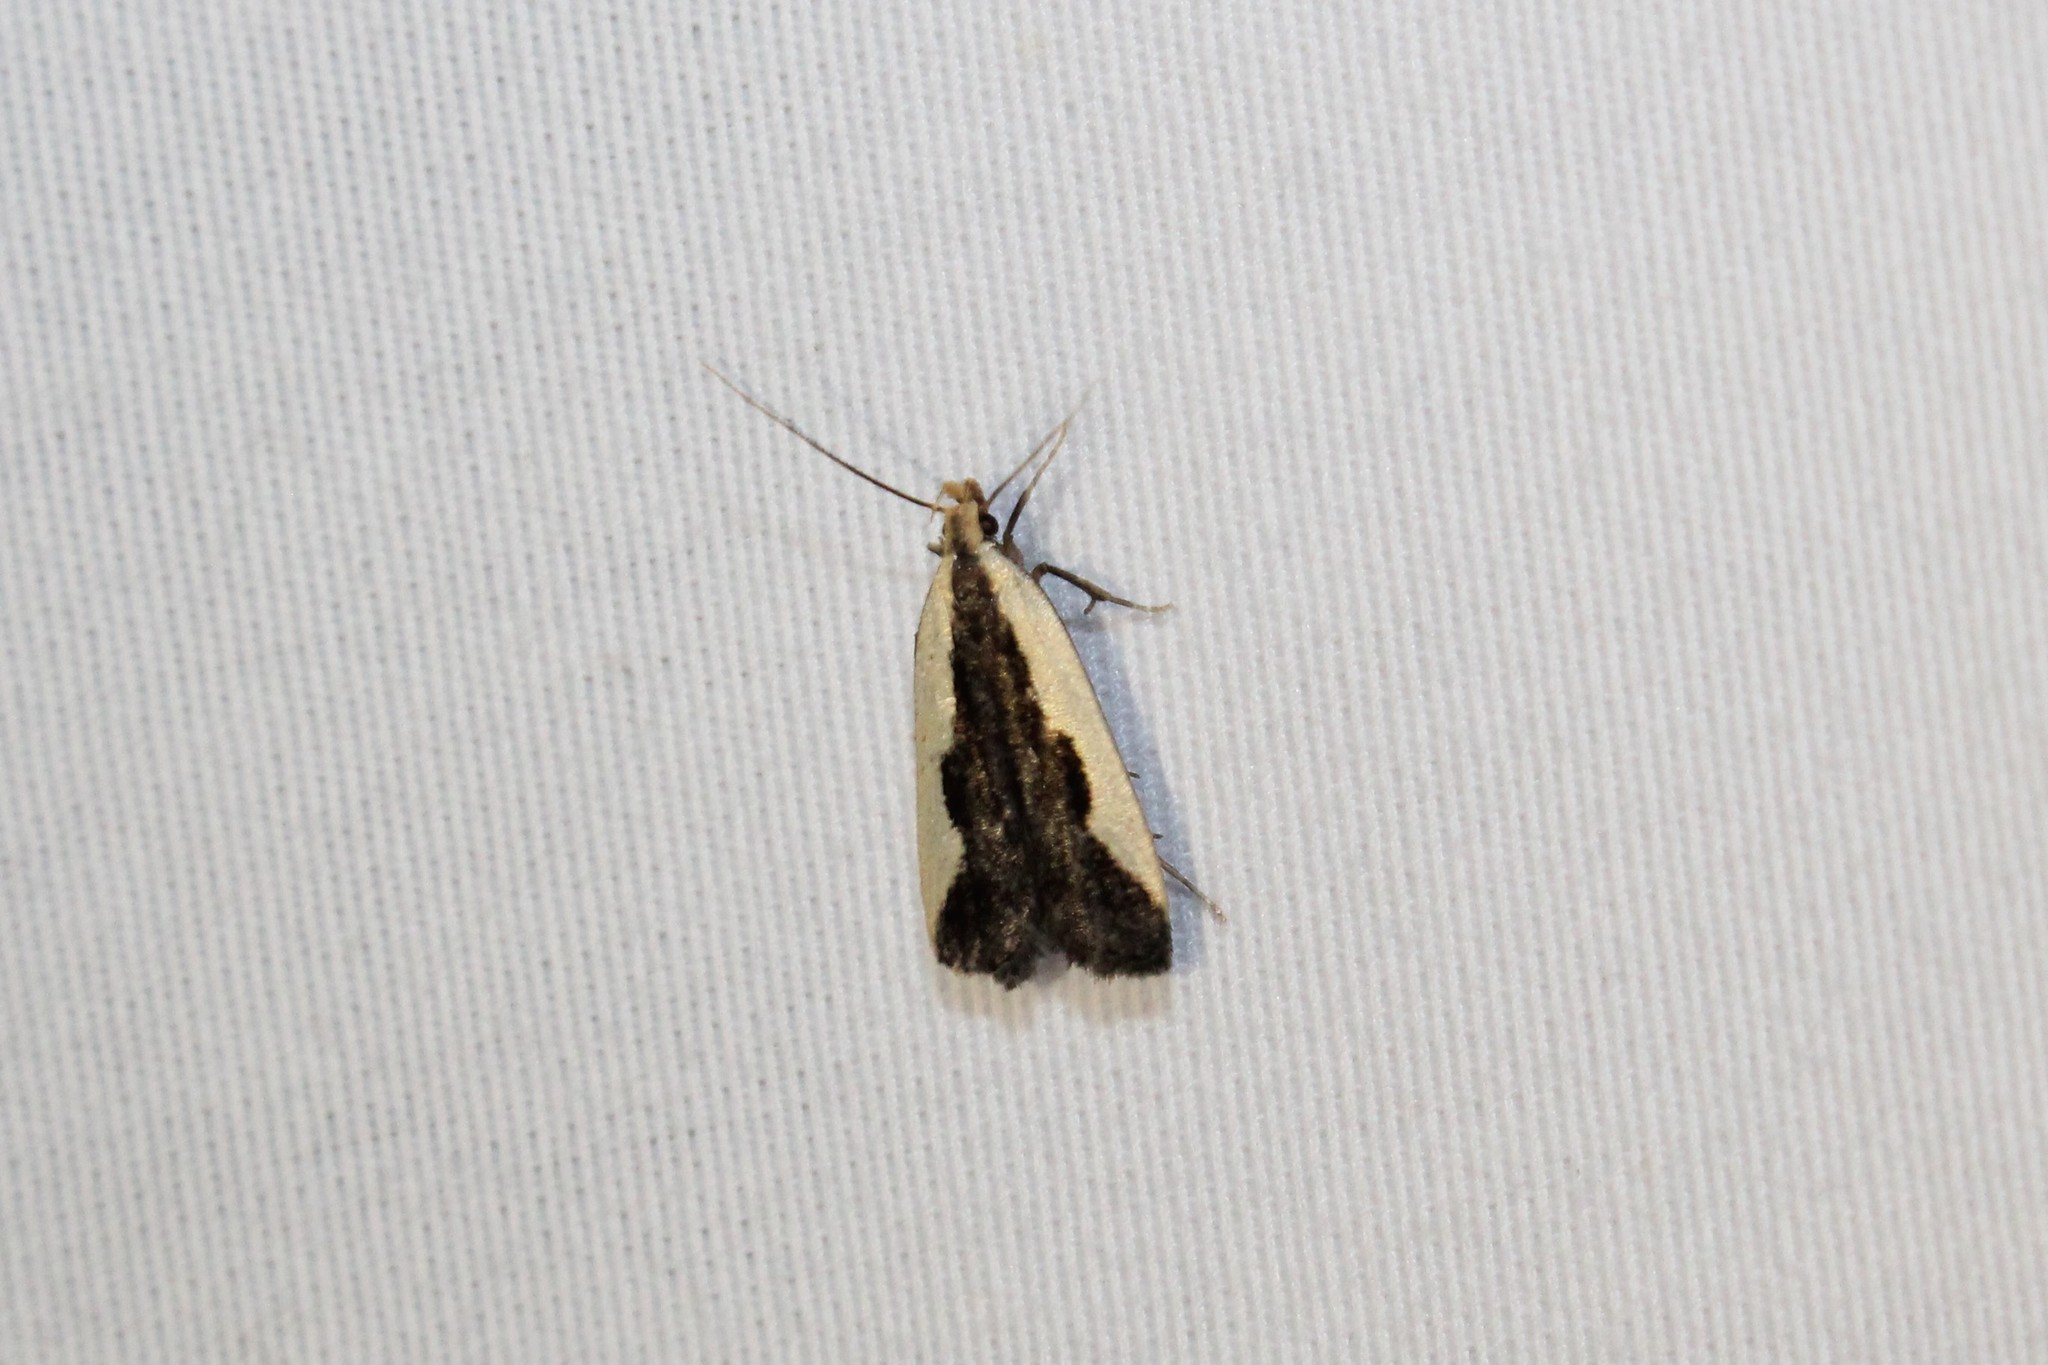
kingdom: Animalia
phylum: Arthropoda
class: Insecta
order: Lepidoptera
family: Gelechiidae
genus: Dichomeris
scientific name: Dichomeris inserrata
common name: Indented dichomeris moth
